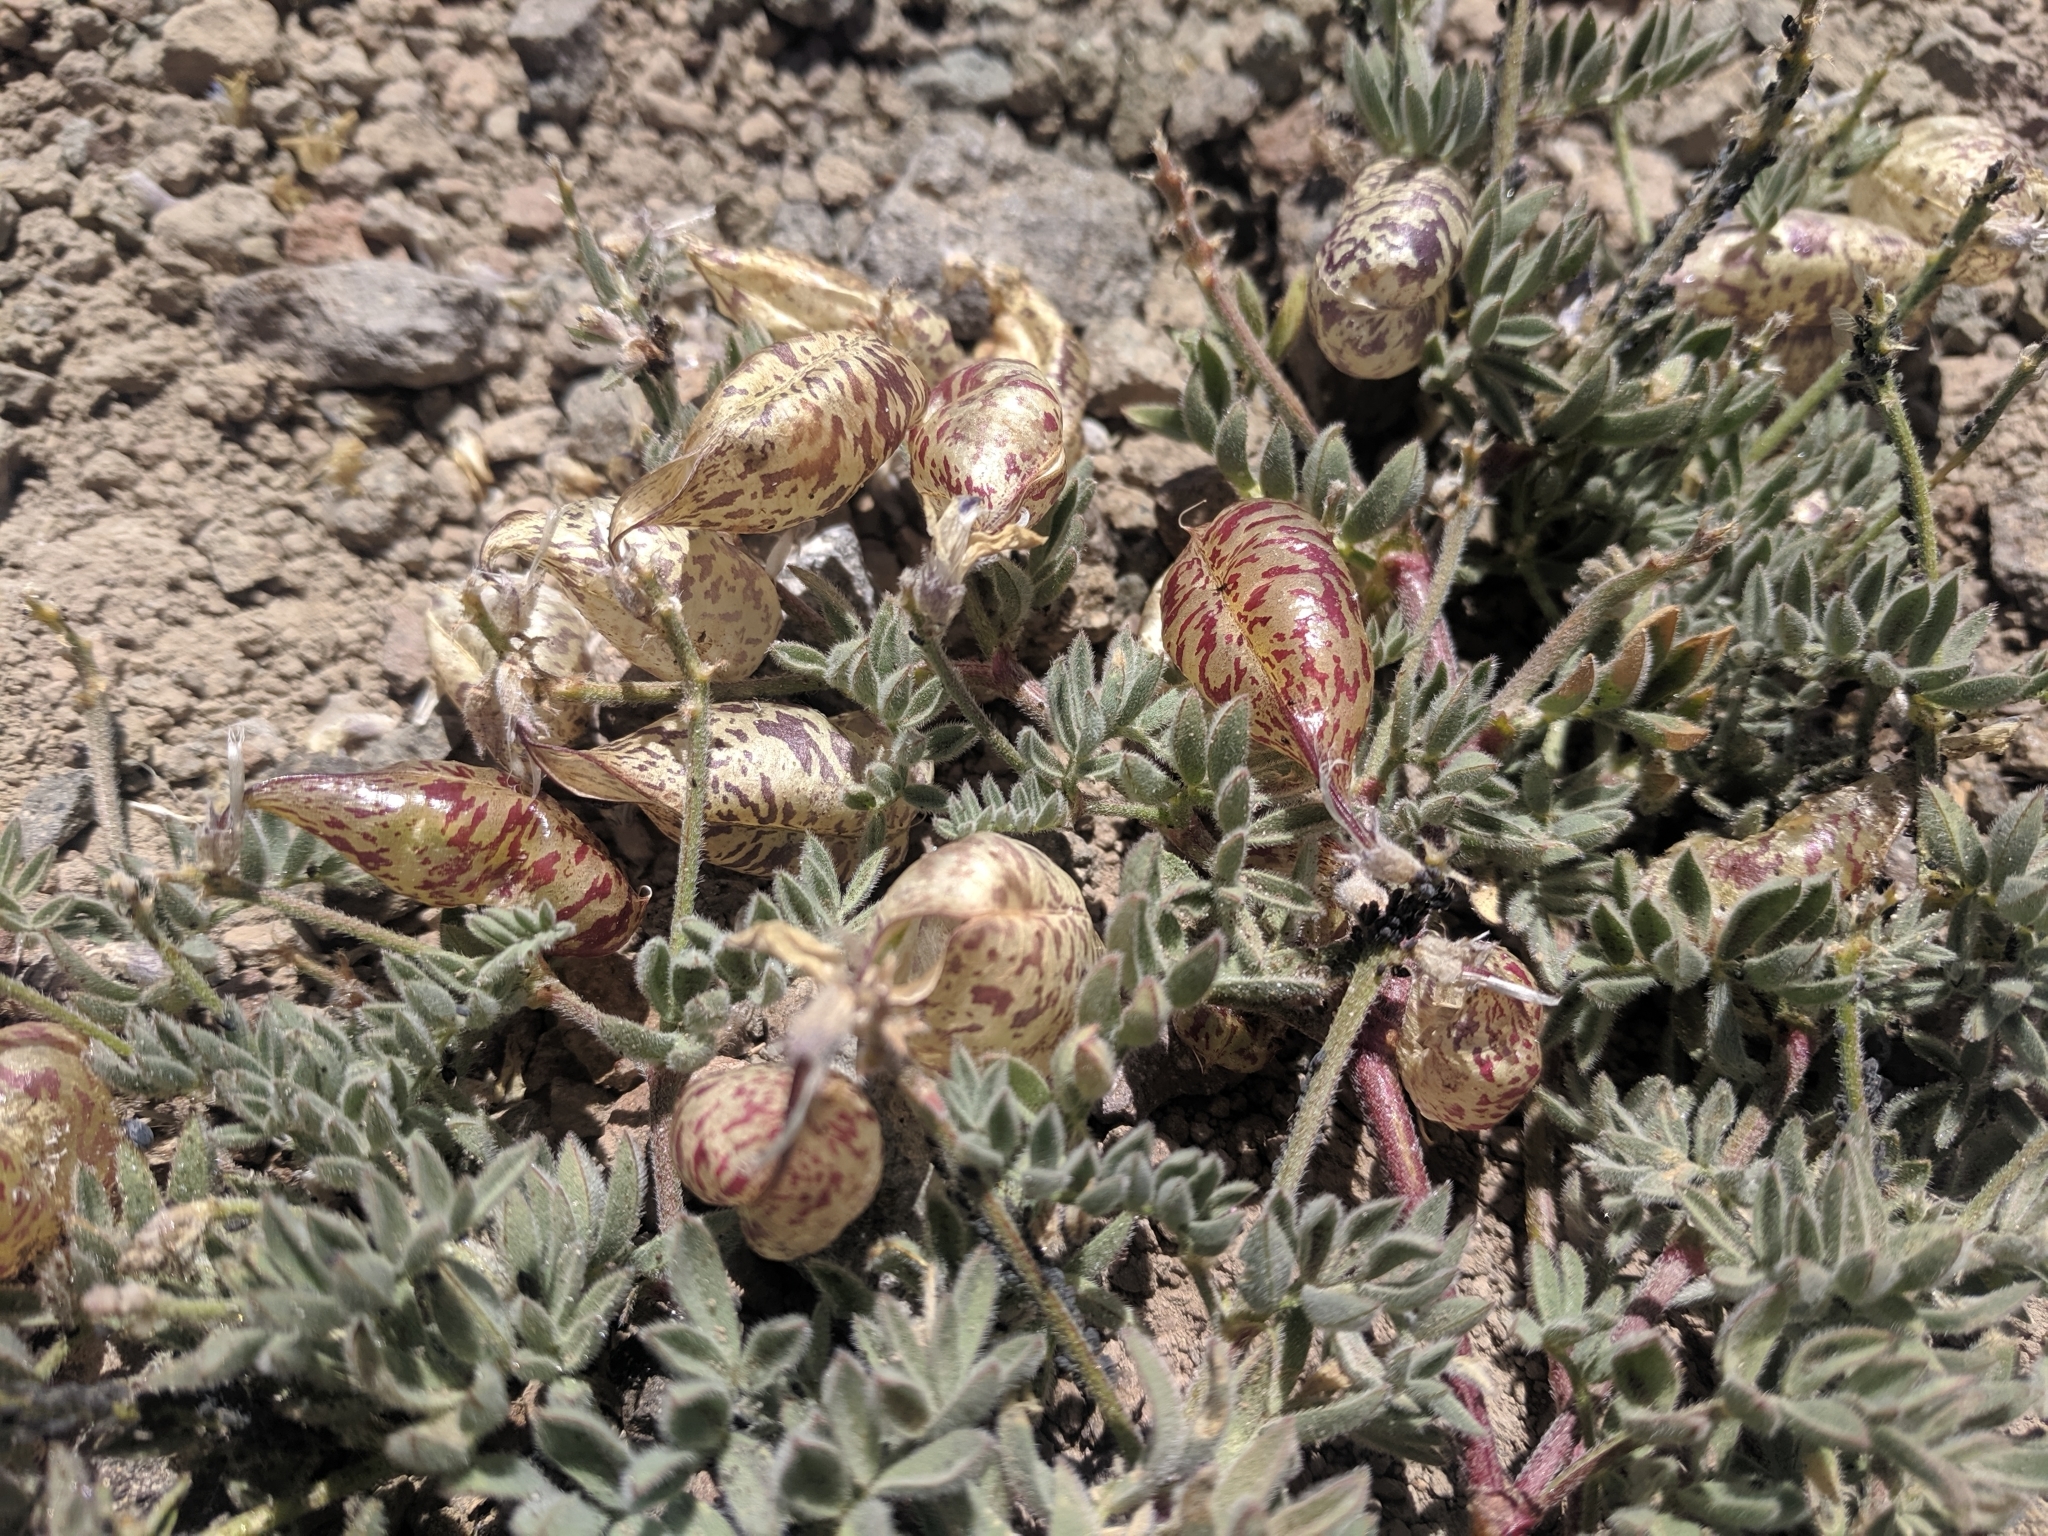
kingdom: Plantae
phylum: Tracheophyta
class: Magnoliopsida
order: Fabales
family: Fabaceae
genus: Astragalus
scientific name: Astragalus whitneyi
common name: Balloonpod milkvetch
